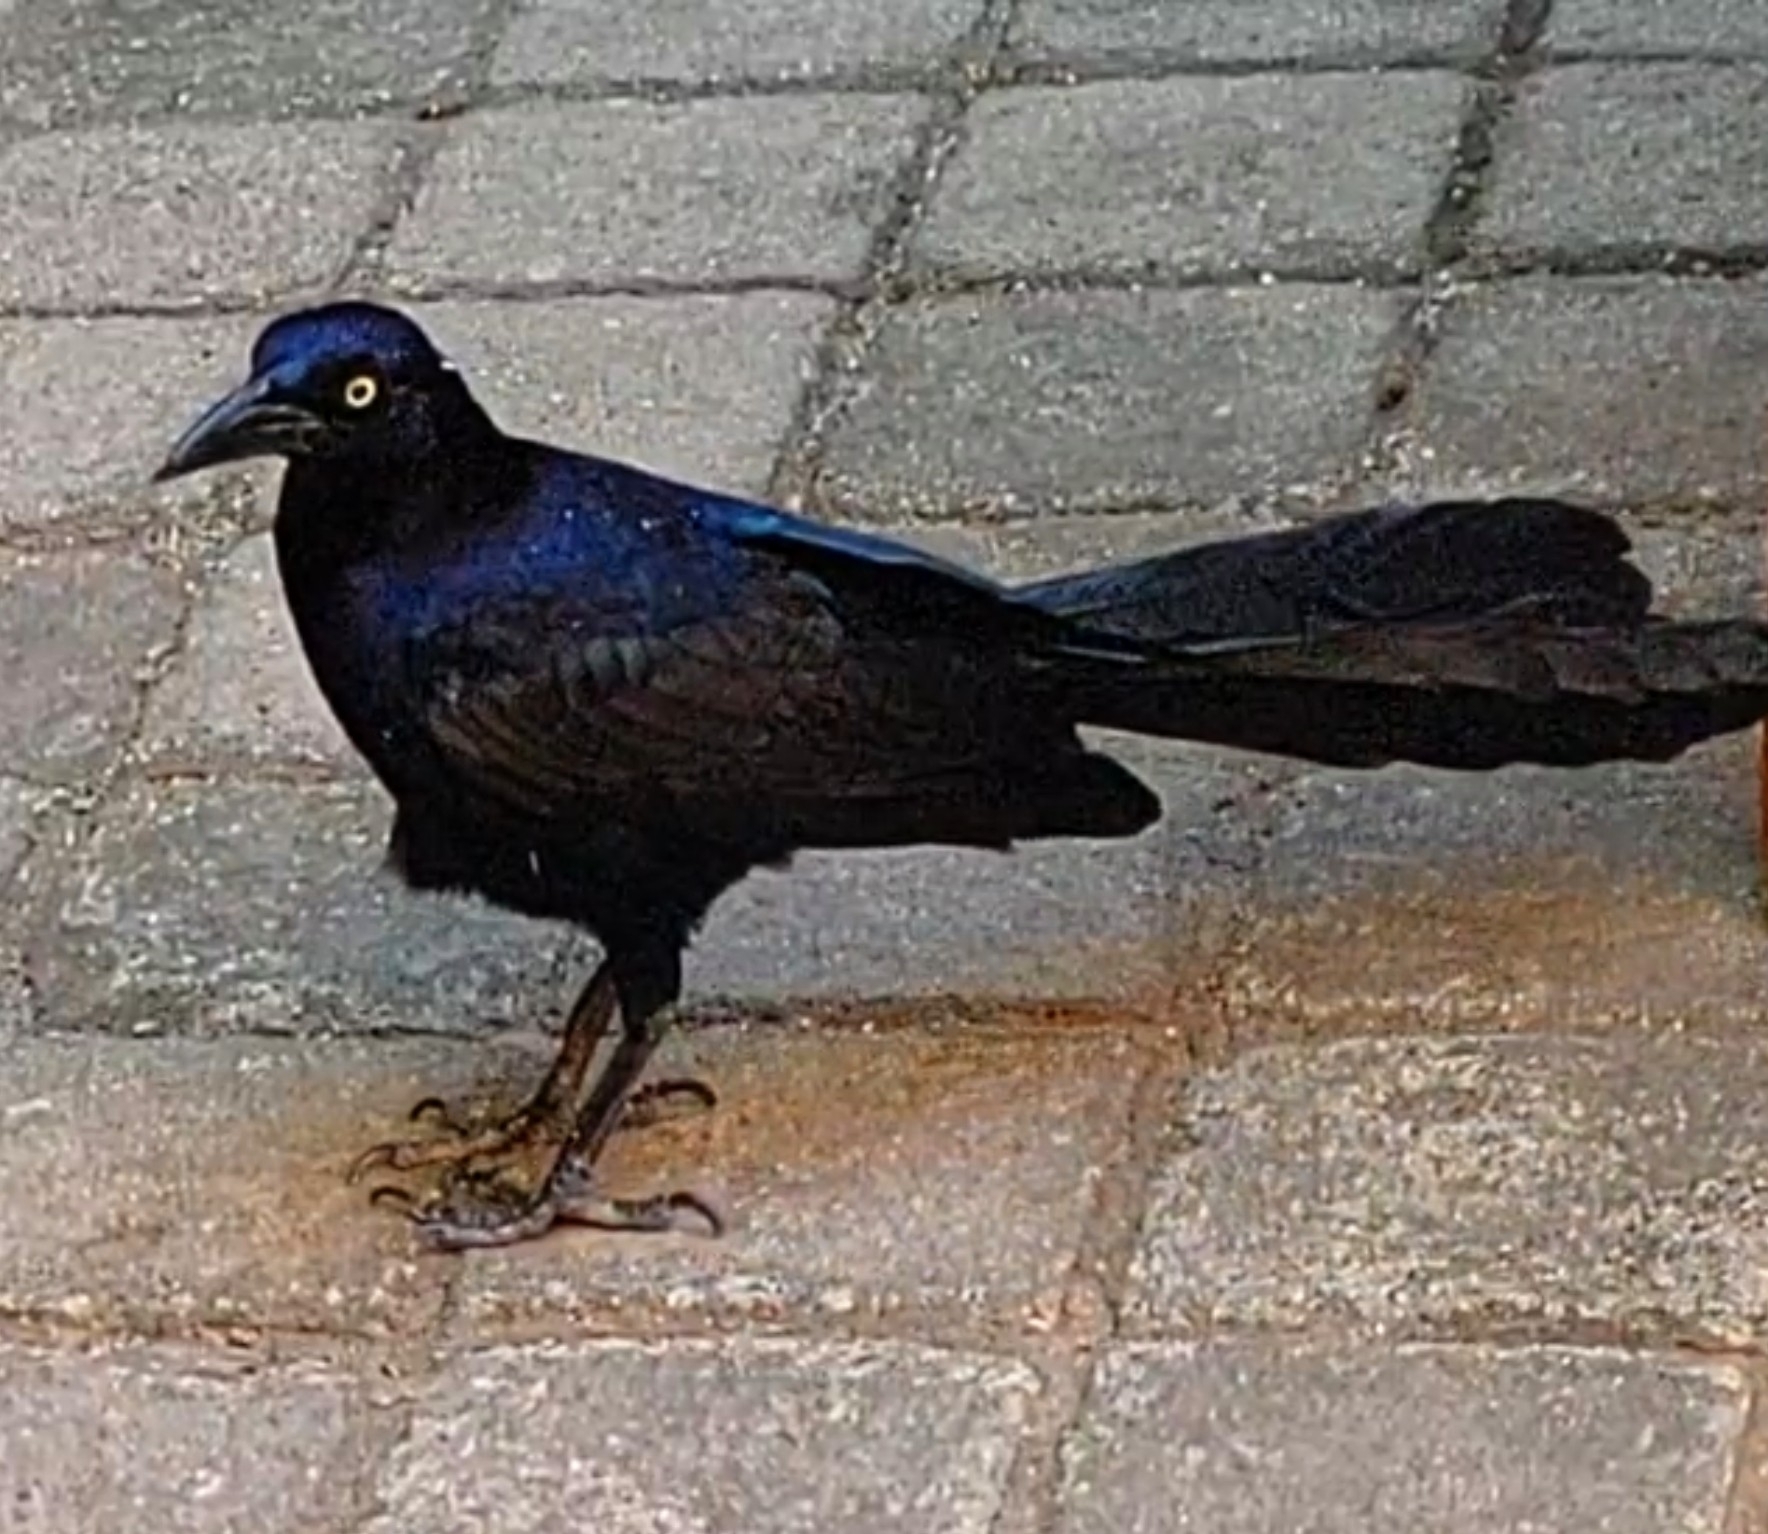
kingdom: Animalia
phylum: Chordata
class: Aves
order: Passeriformes
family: Icteridae
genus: Quiscalus
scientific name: Quiscalus mexicanus
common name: Great-tailed grackle
